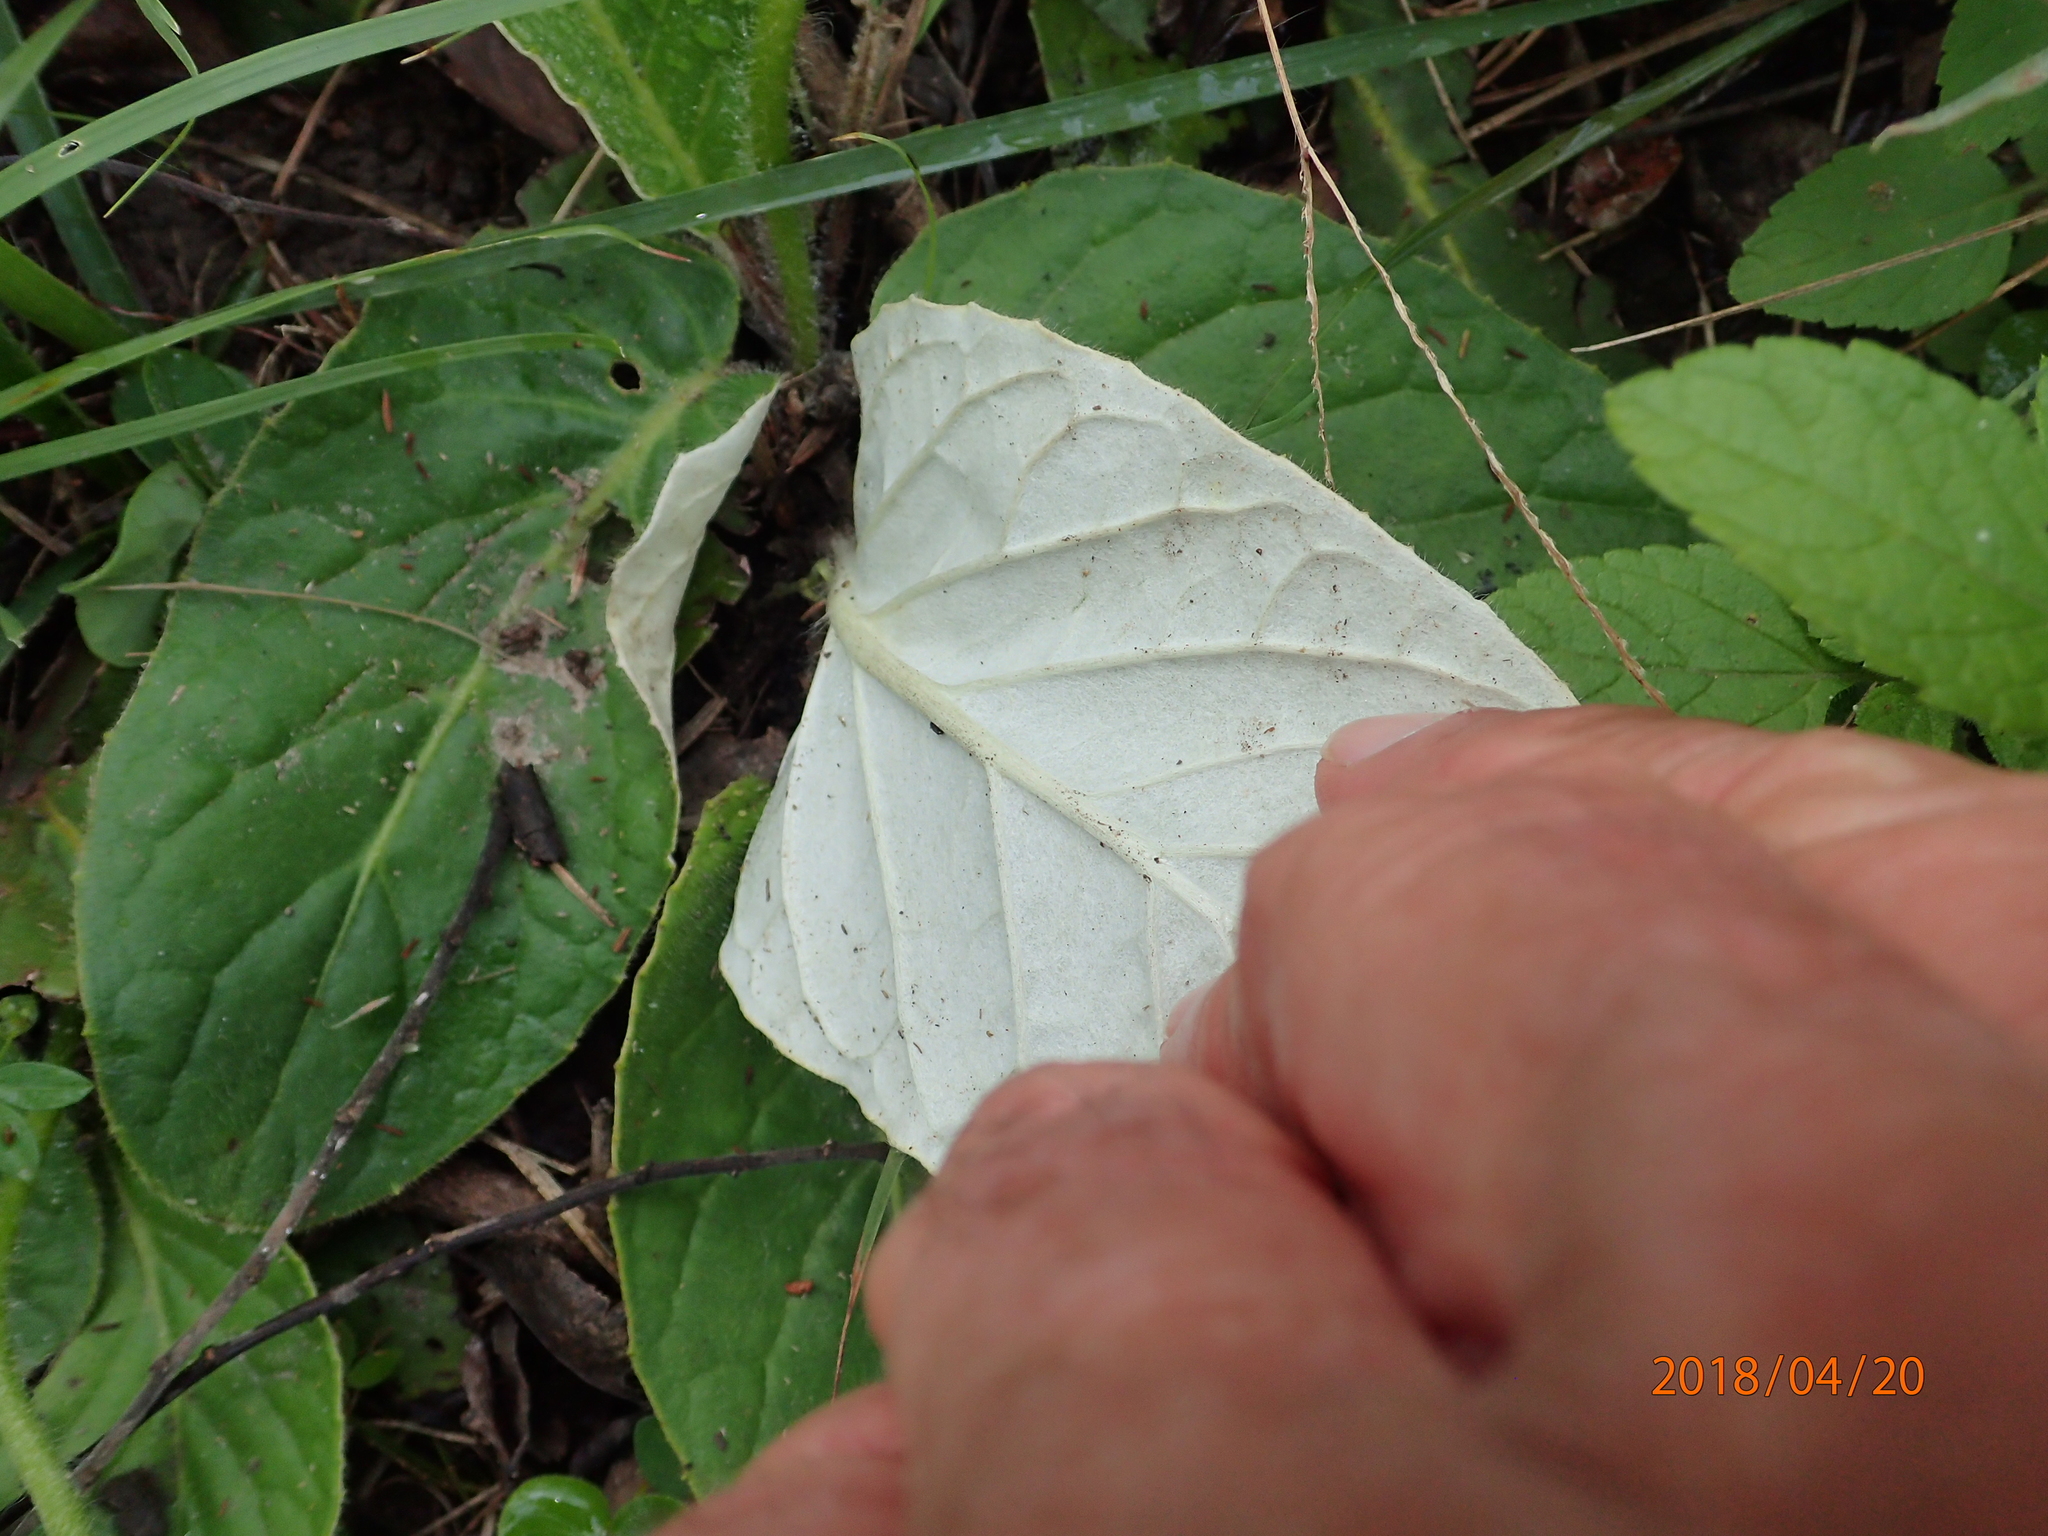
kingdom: Plantae
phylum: Tracheophyta
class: Magnoliopsida
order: Asterales
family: Asteraceae
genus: Gerbera
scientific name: Gerbera ambigua
